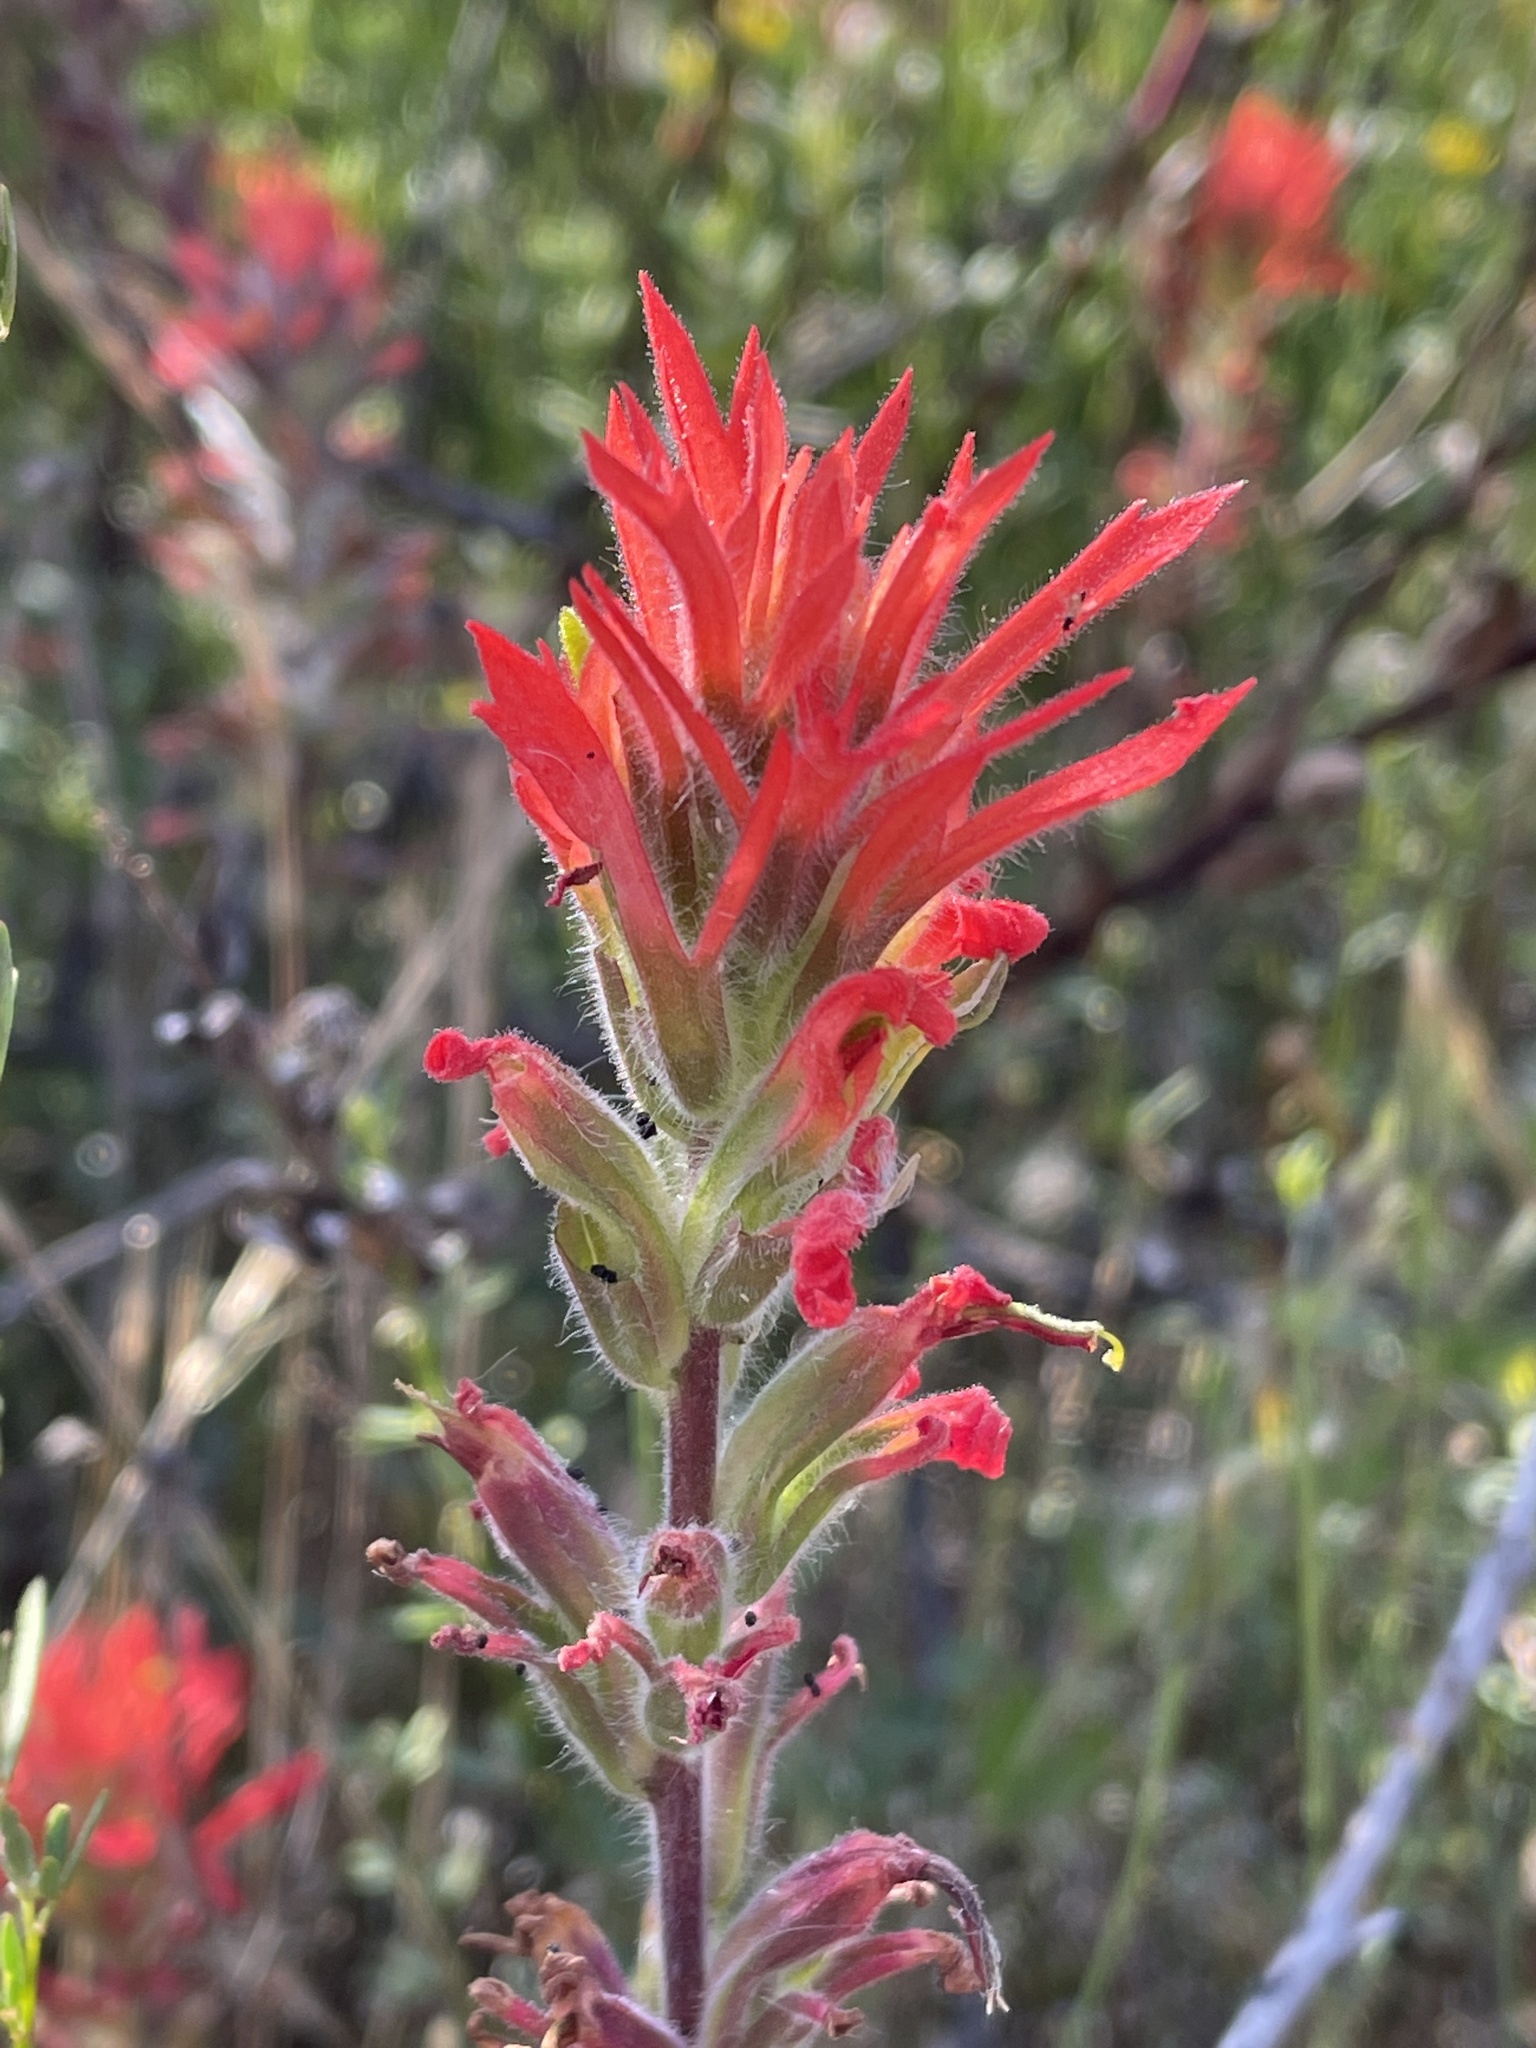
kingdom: Plantae
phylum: Tracheophyta
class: Magnoliopsida
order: Lamiales
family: Orobanchaceae
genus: Castilleja
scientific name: Castilleja affinis
